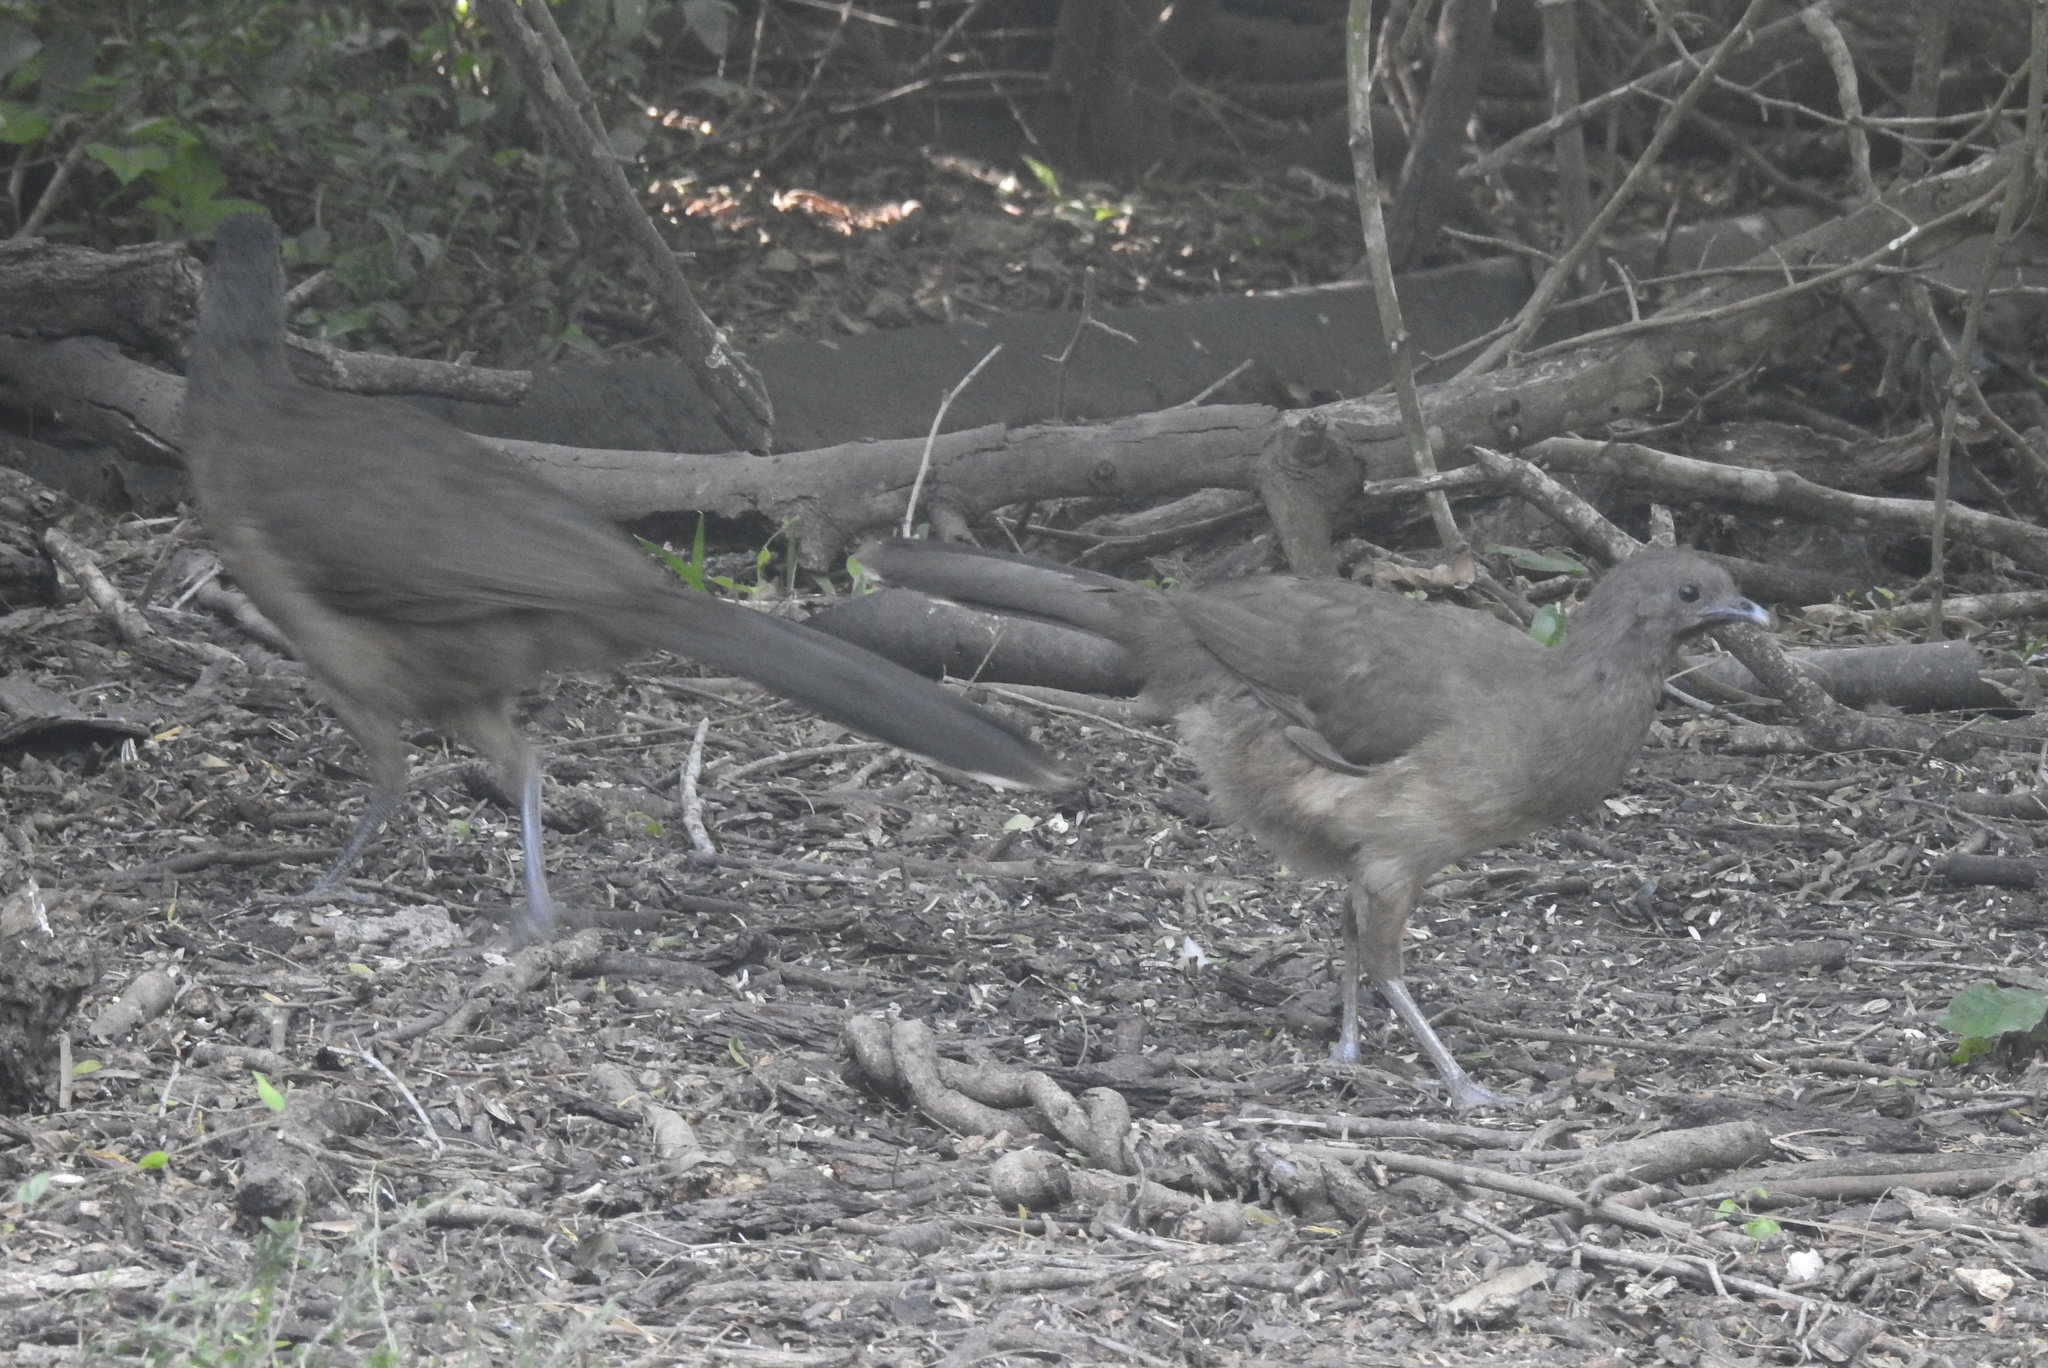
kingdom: Animalia
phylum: Chordata
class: Aves
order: Galliformes
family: Cracidae
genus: Ortalis
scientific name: Ortalis vetula
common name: Plain chachalaca
